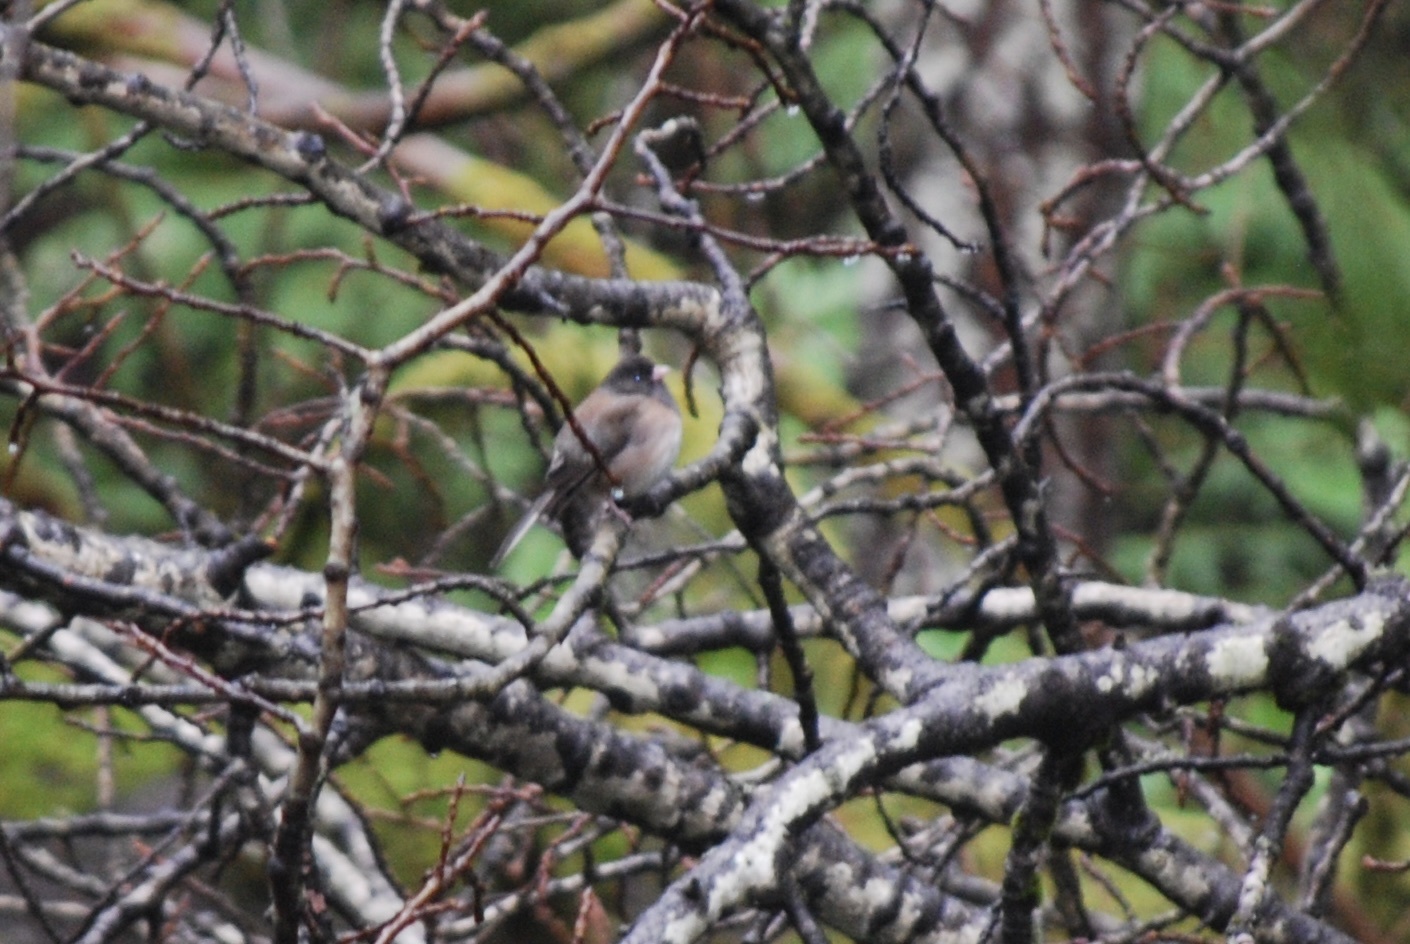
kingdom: Animalia
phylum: Chordata
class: Aves
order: Passeriformes
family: Passerellidae
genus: Junco
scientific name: Junco hyemalis
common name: Dark-eyed junco
